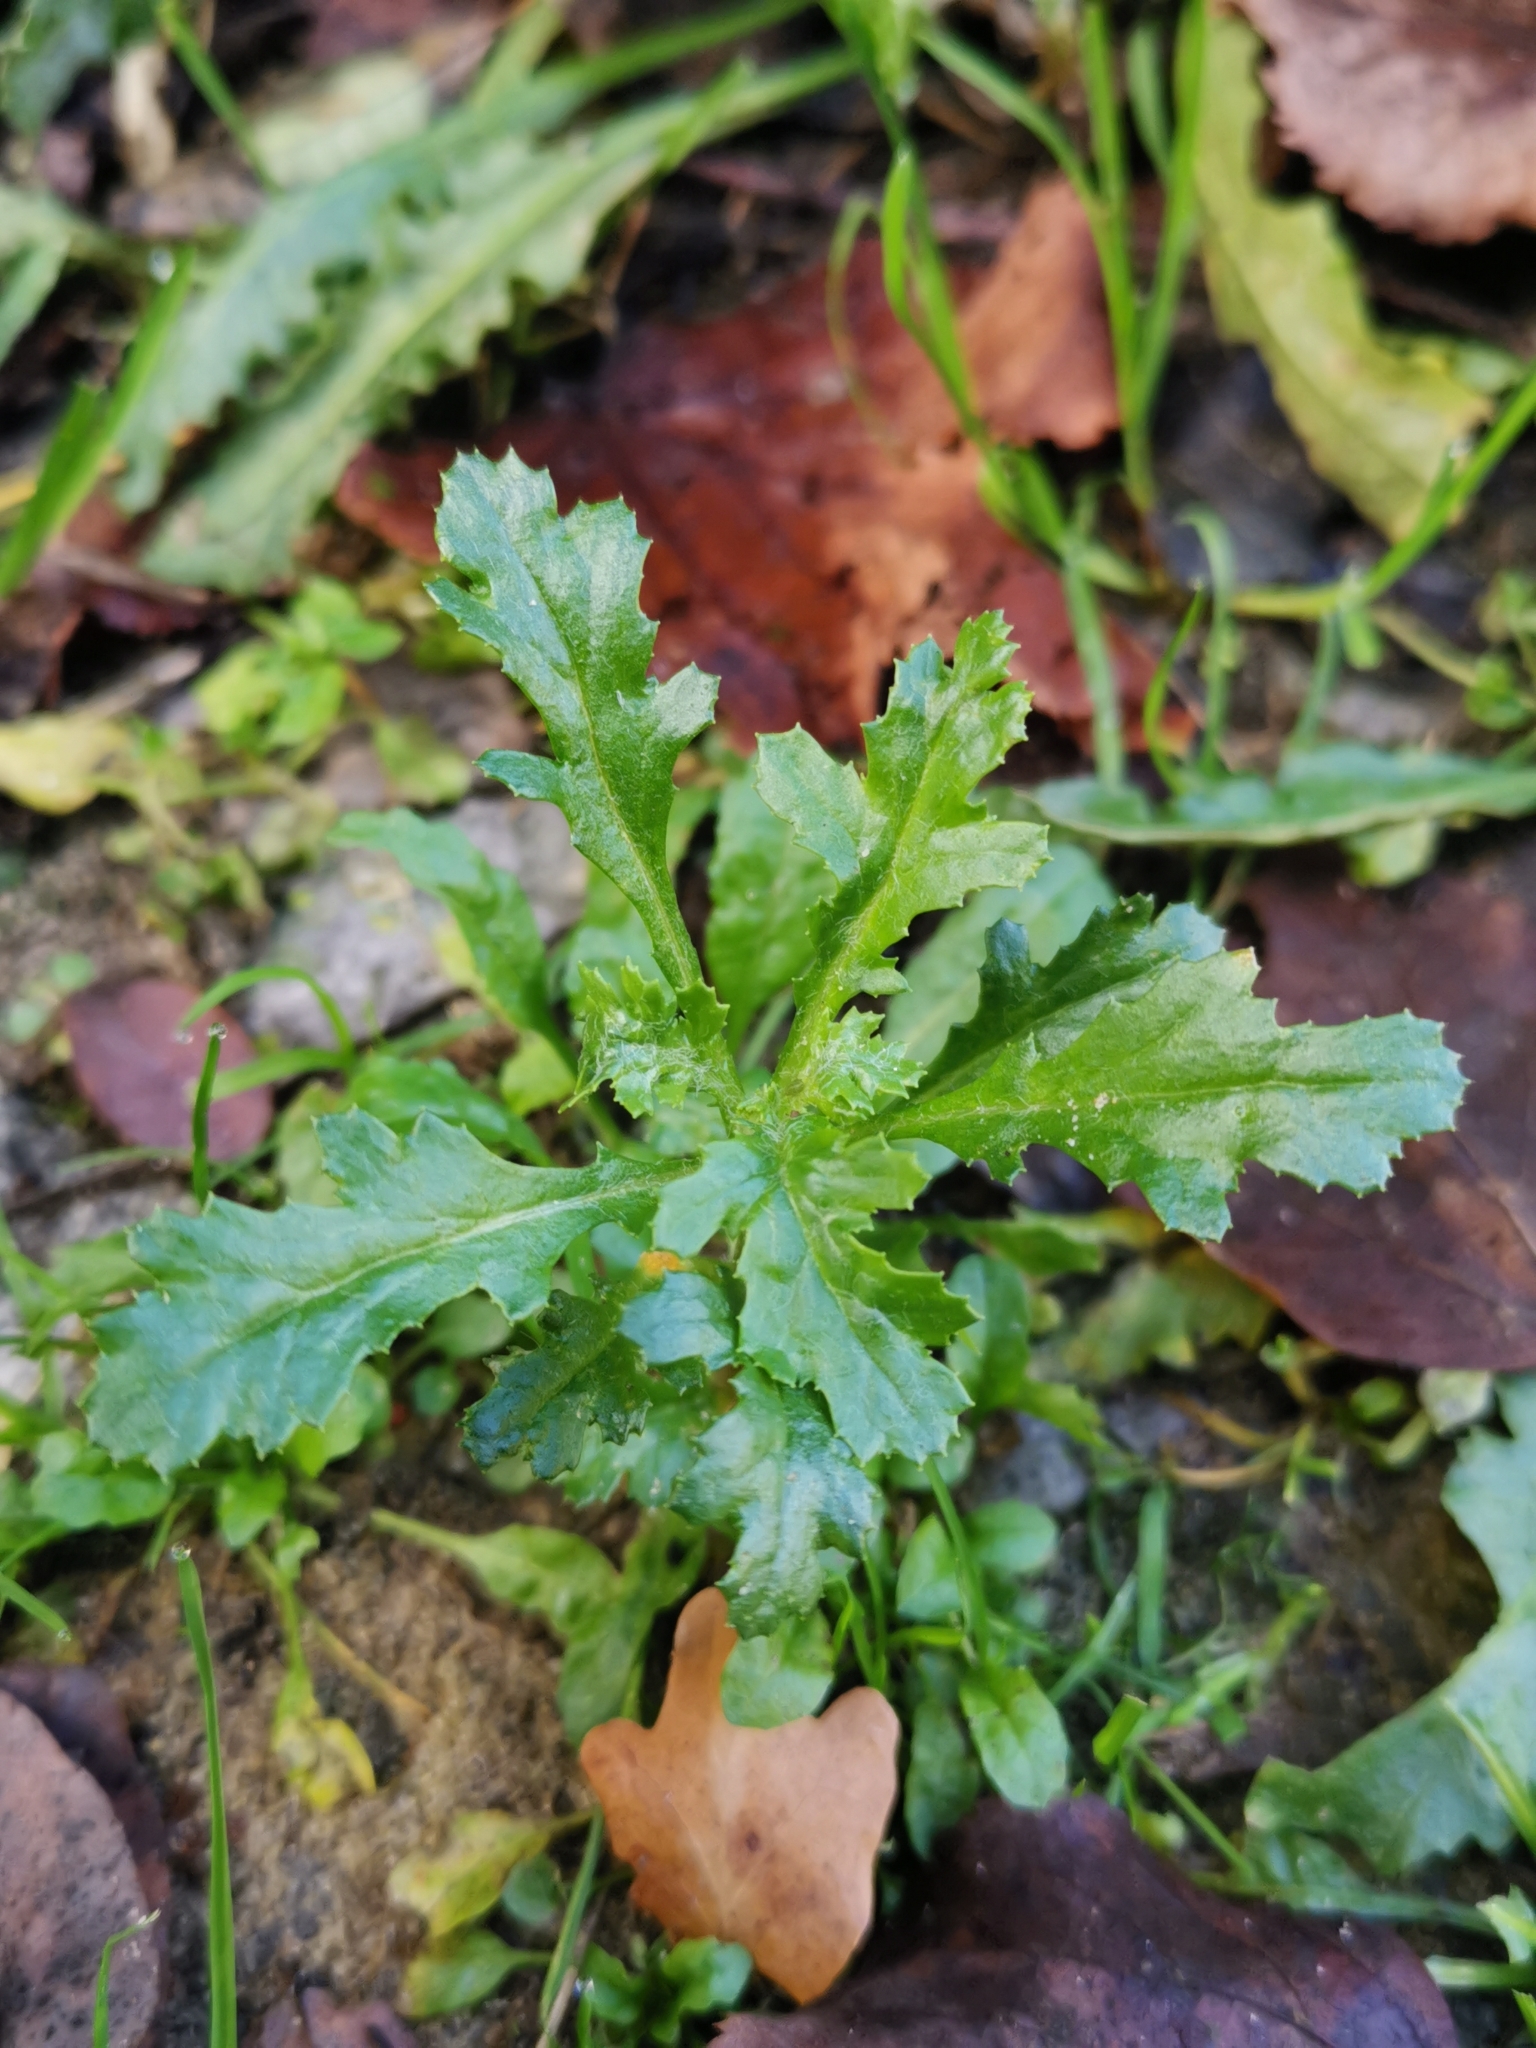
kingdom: Plantae
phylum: Tracheophyta
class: Magnoliopsida
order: Asterales
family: Asteraceae
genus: Senecio
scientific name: Senecio vulgaris
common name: Old-man-in-the-spring
